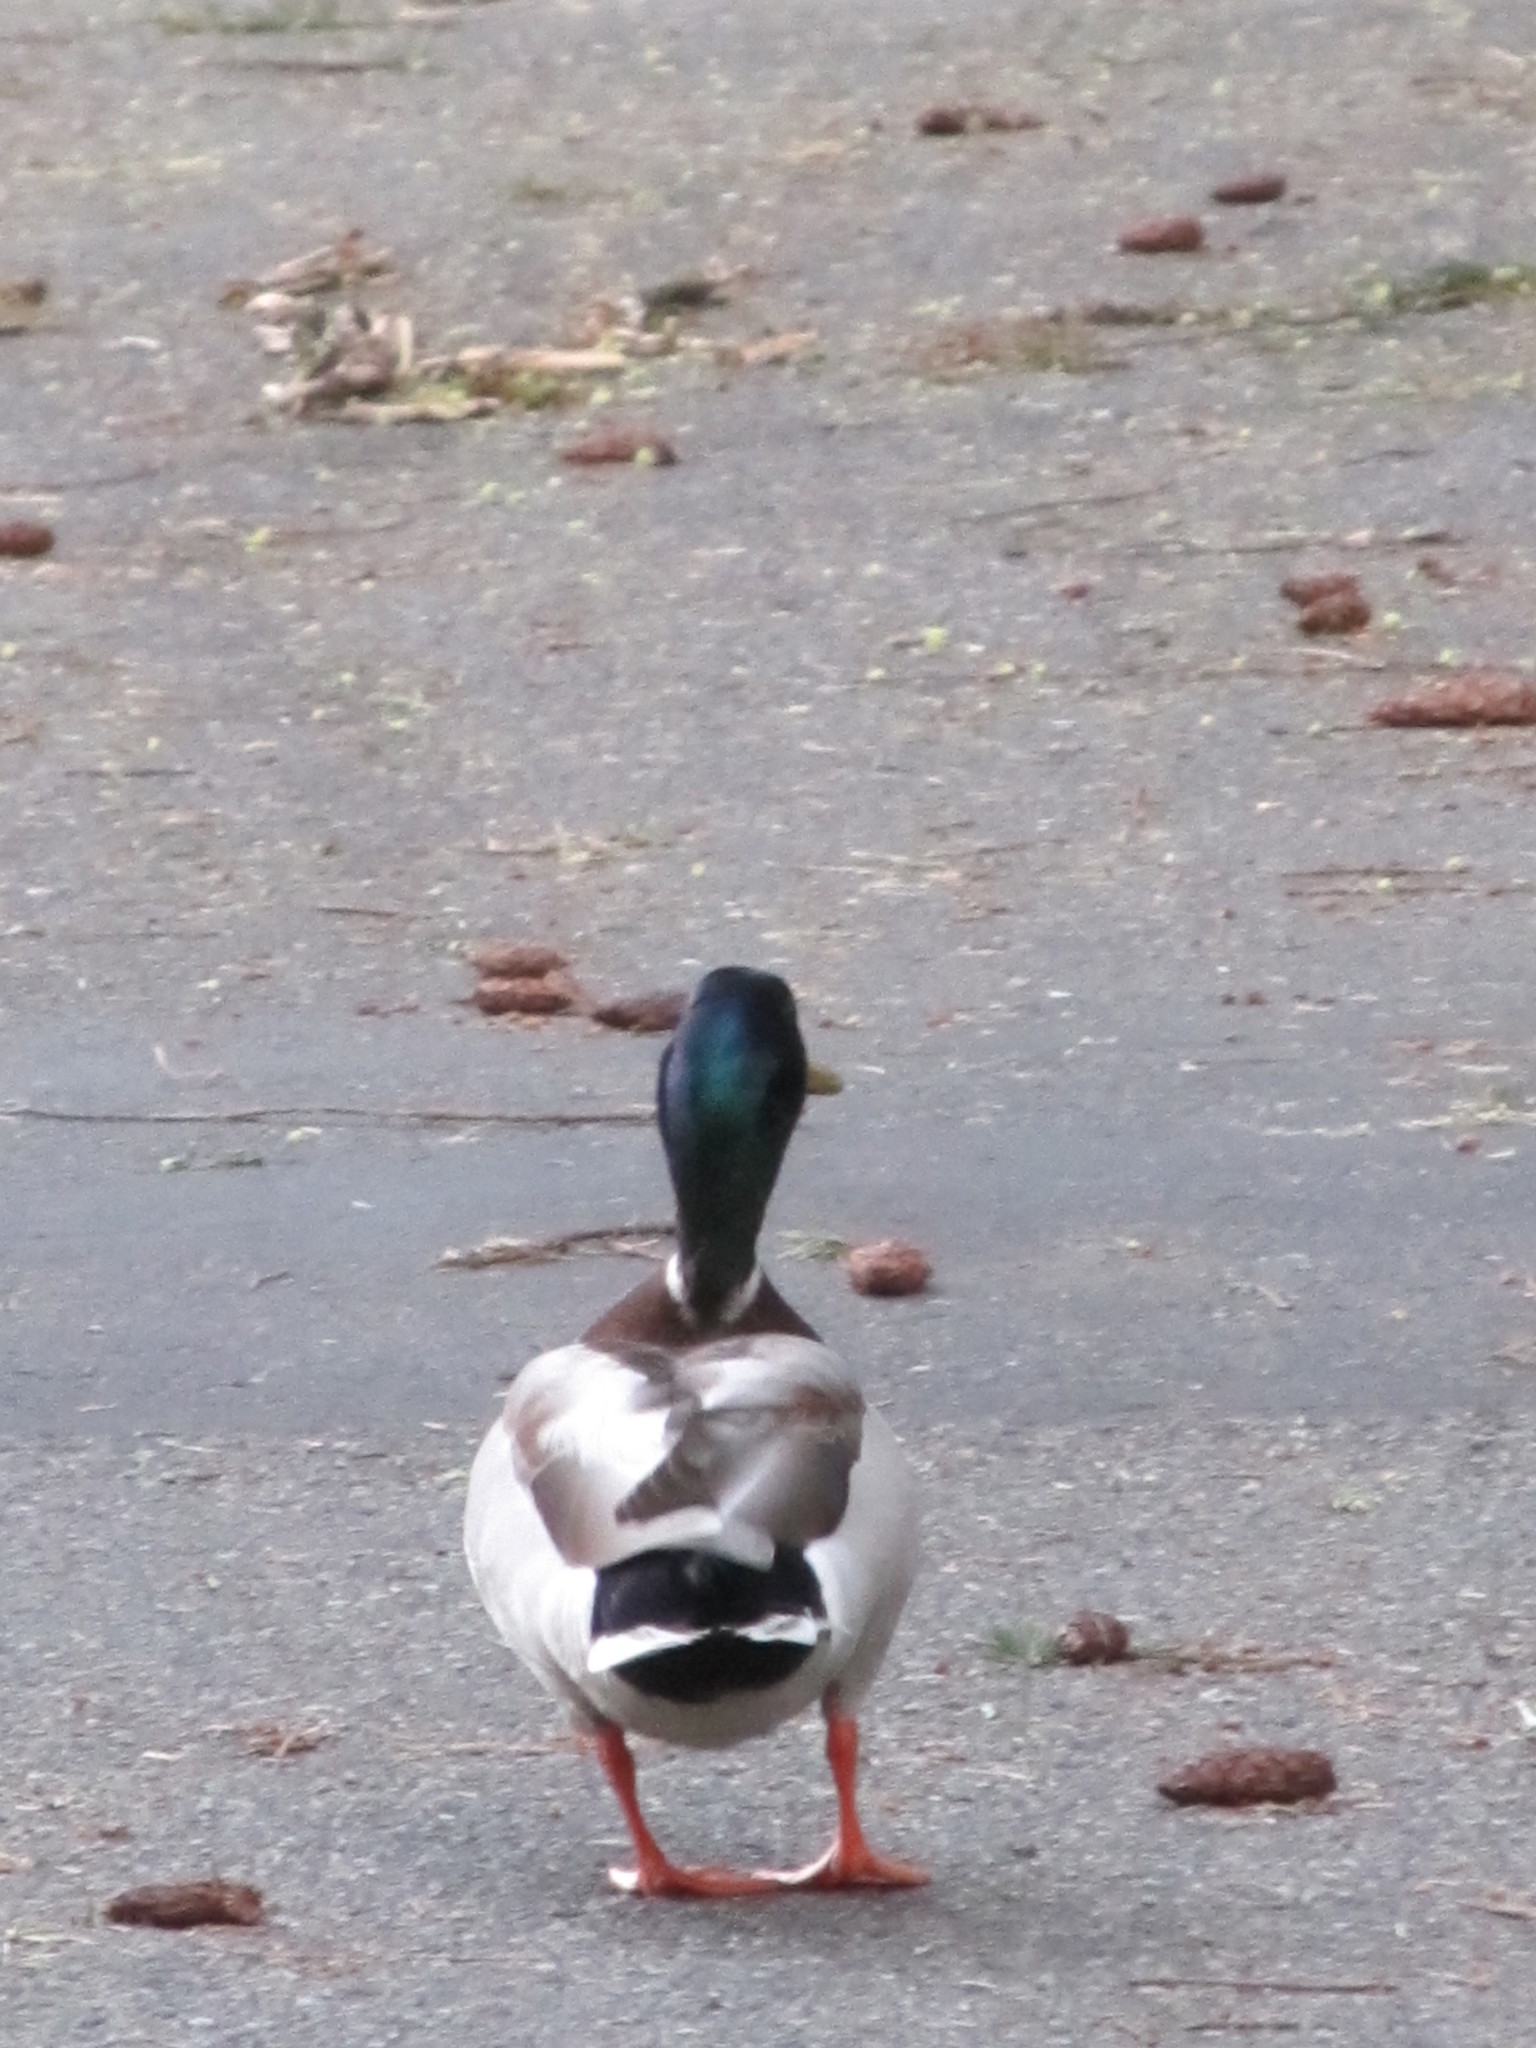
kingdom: Animalia
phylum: Chordata
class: Aves
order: Anseriformes
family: Anatidae
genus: Anas
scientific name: Anas platyrhynchos
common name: Mallard
